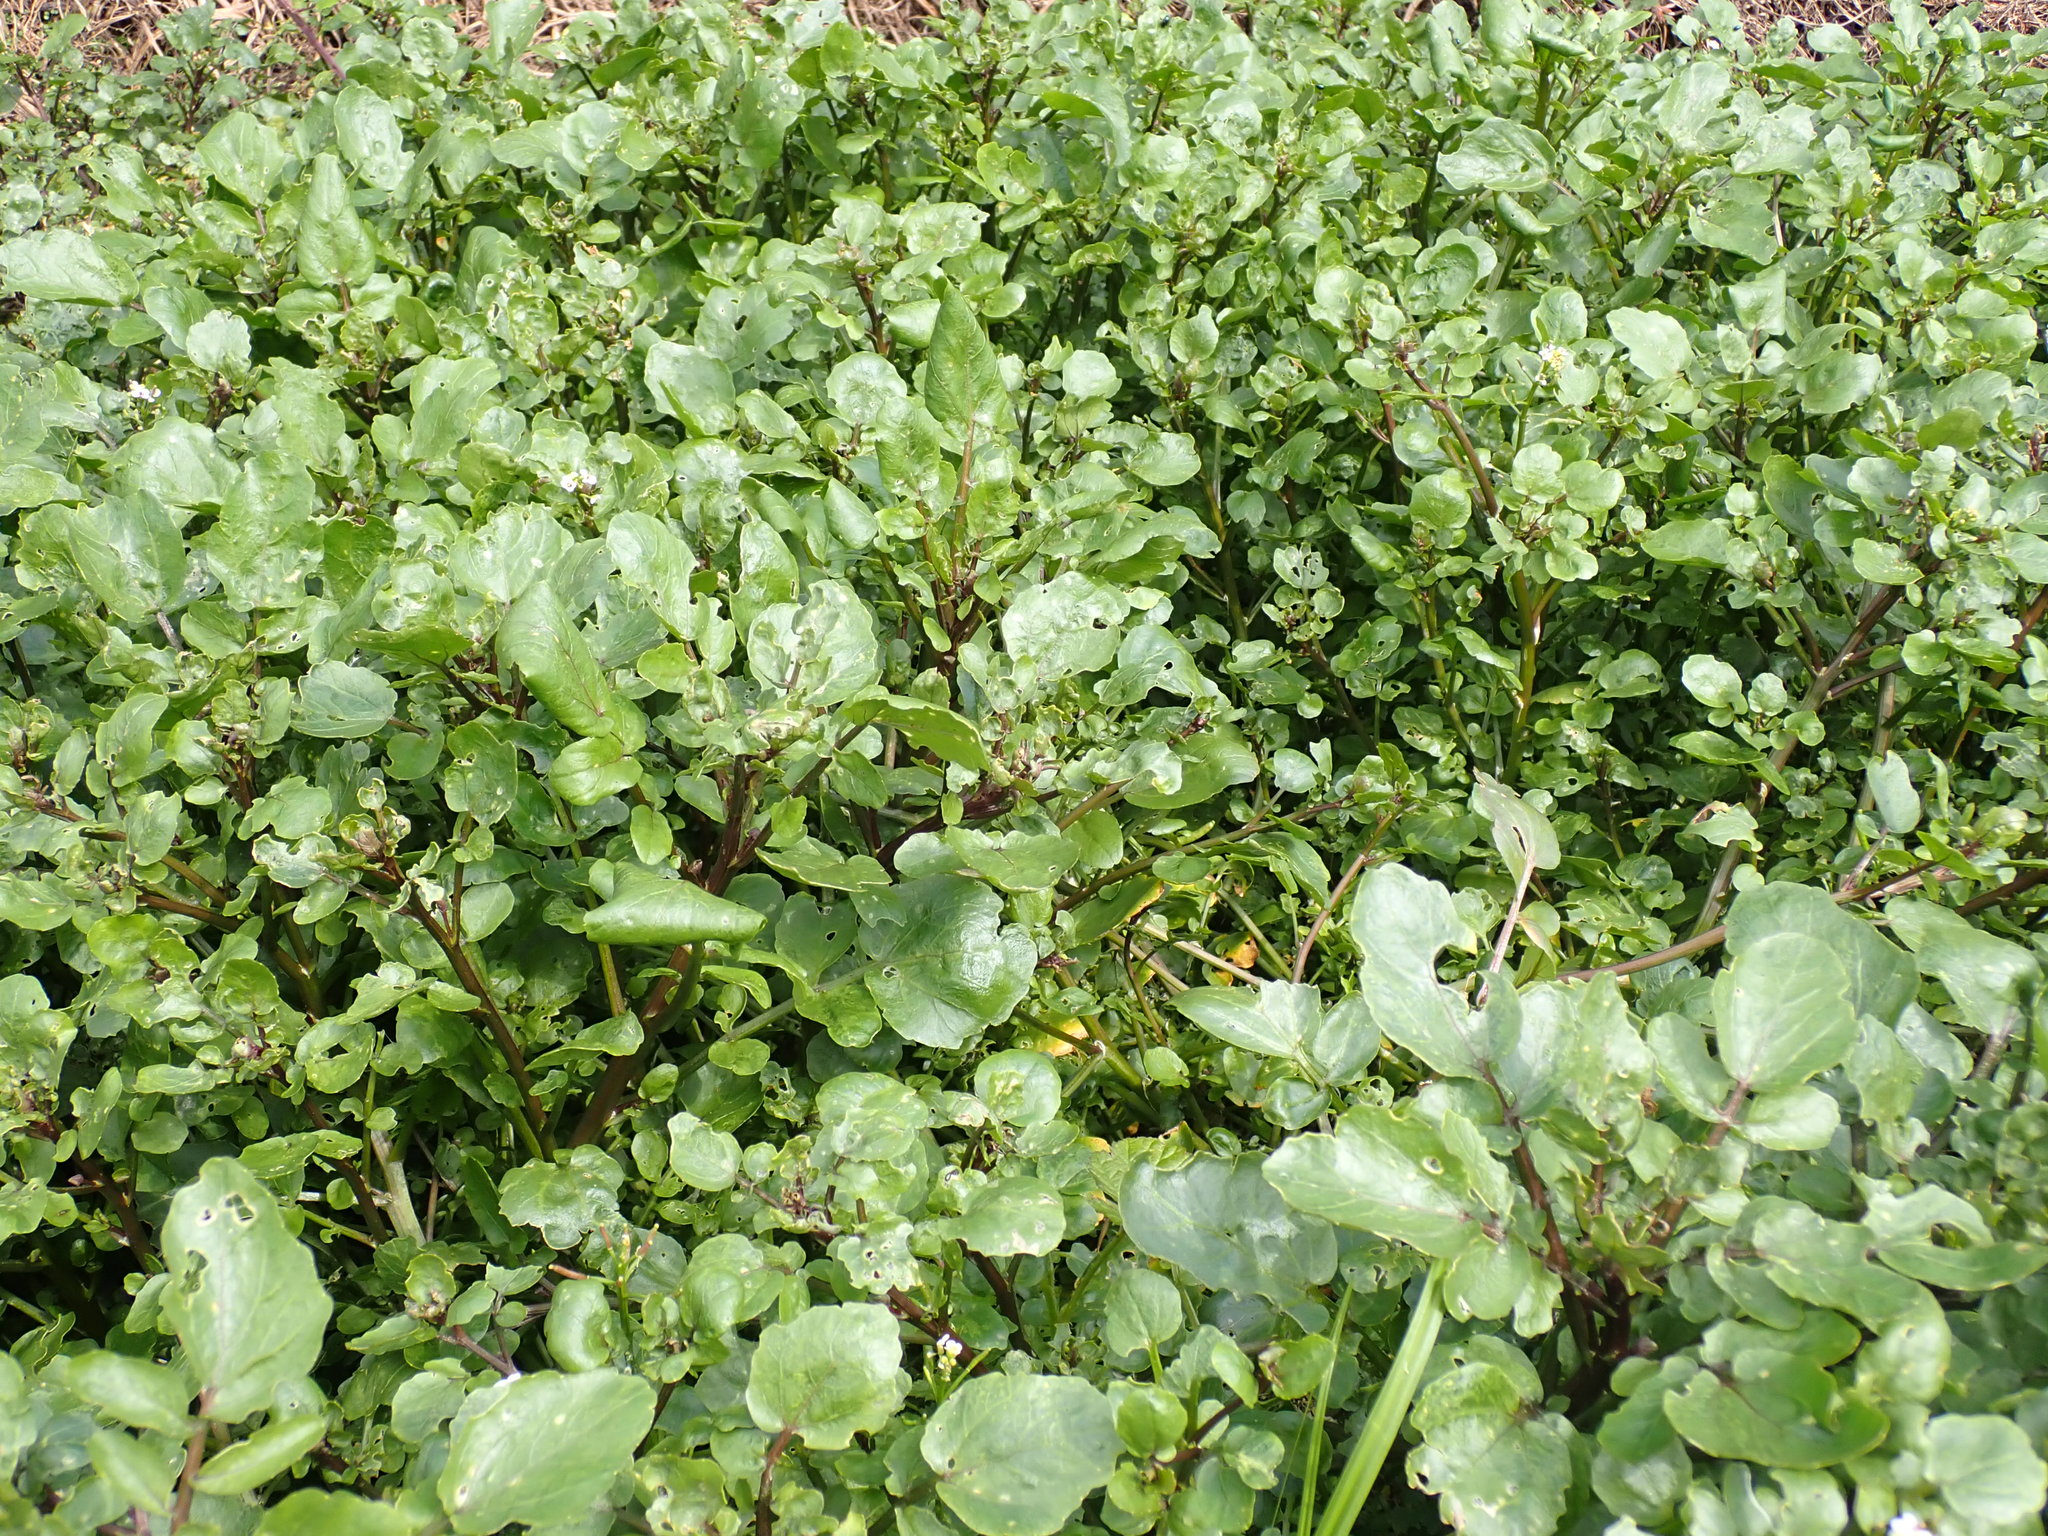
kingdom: Plantae
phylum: Tracheophyta
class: Magnoliopsida
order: Brassicales
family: Brassicaceae
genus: Nasturtium
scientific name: Nasturtium officinale
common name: Watercress
